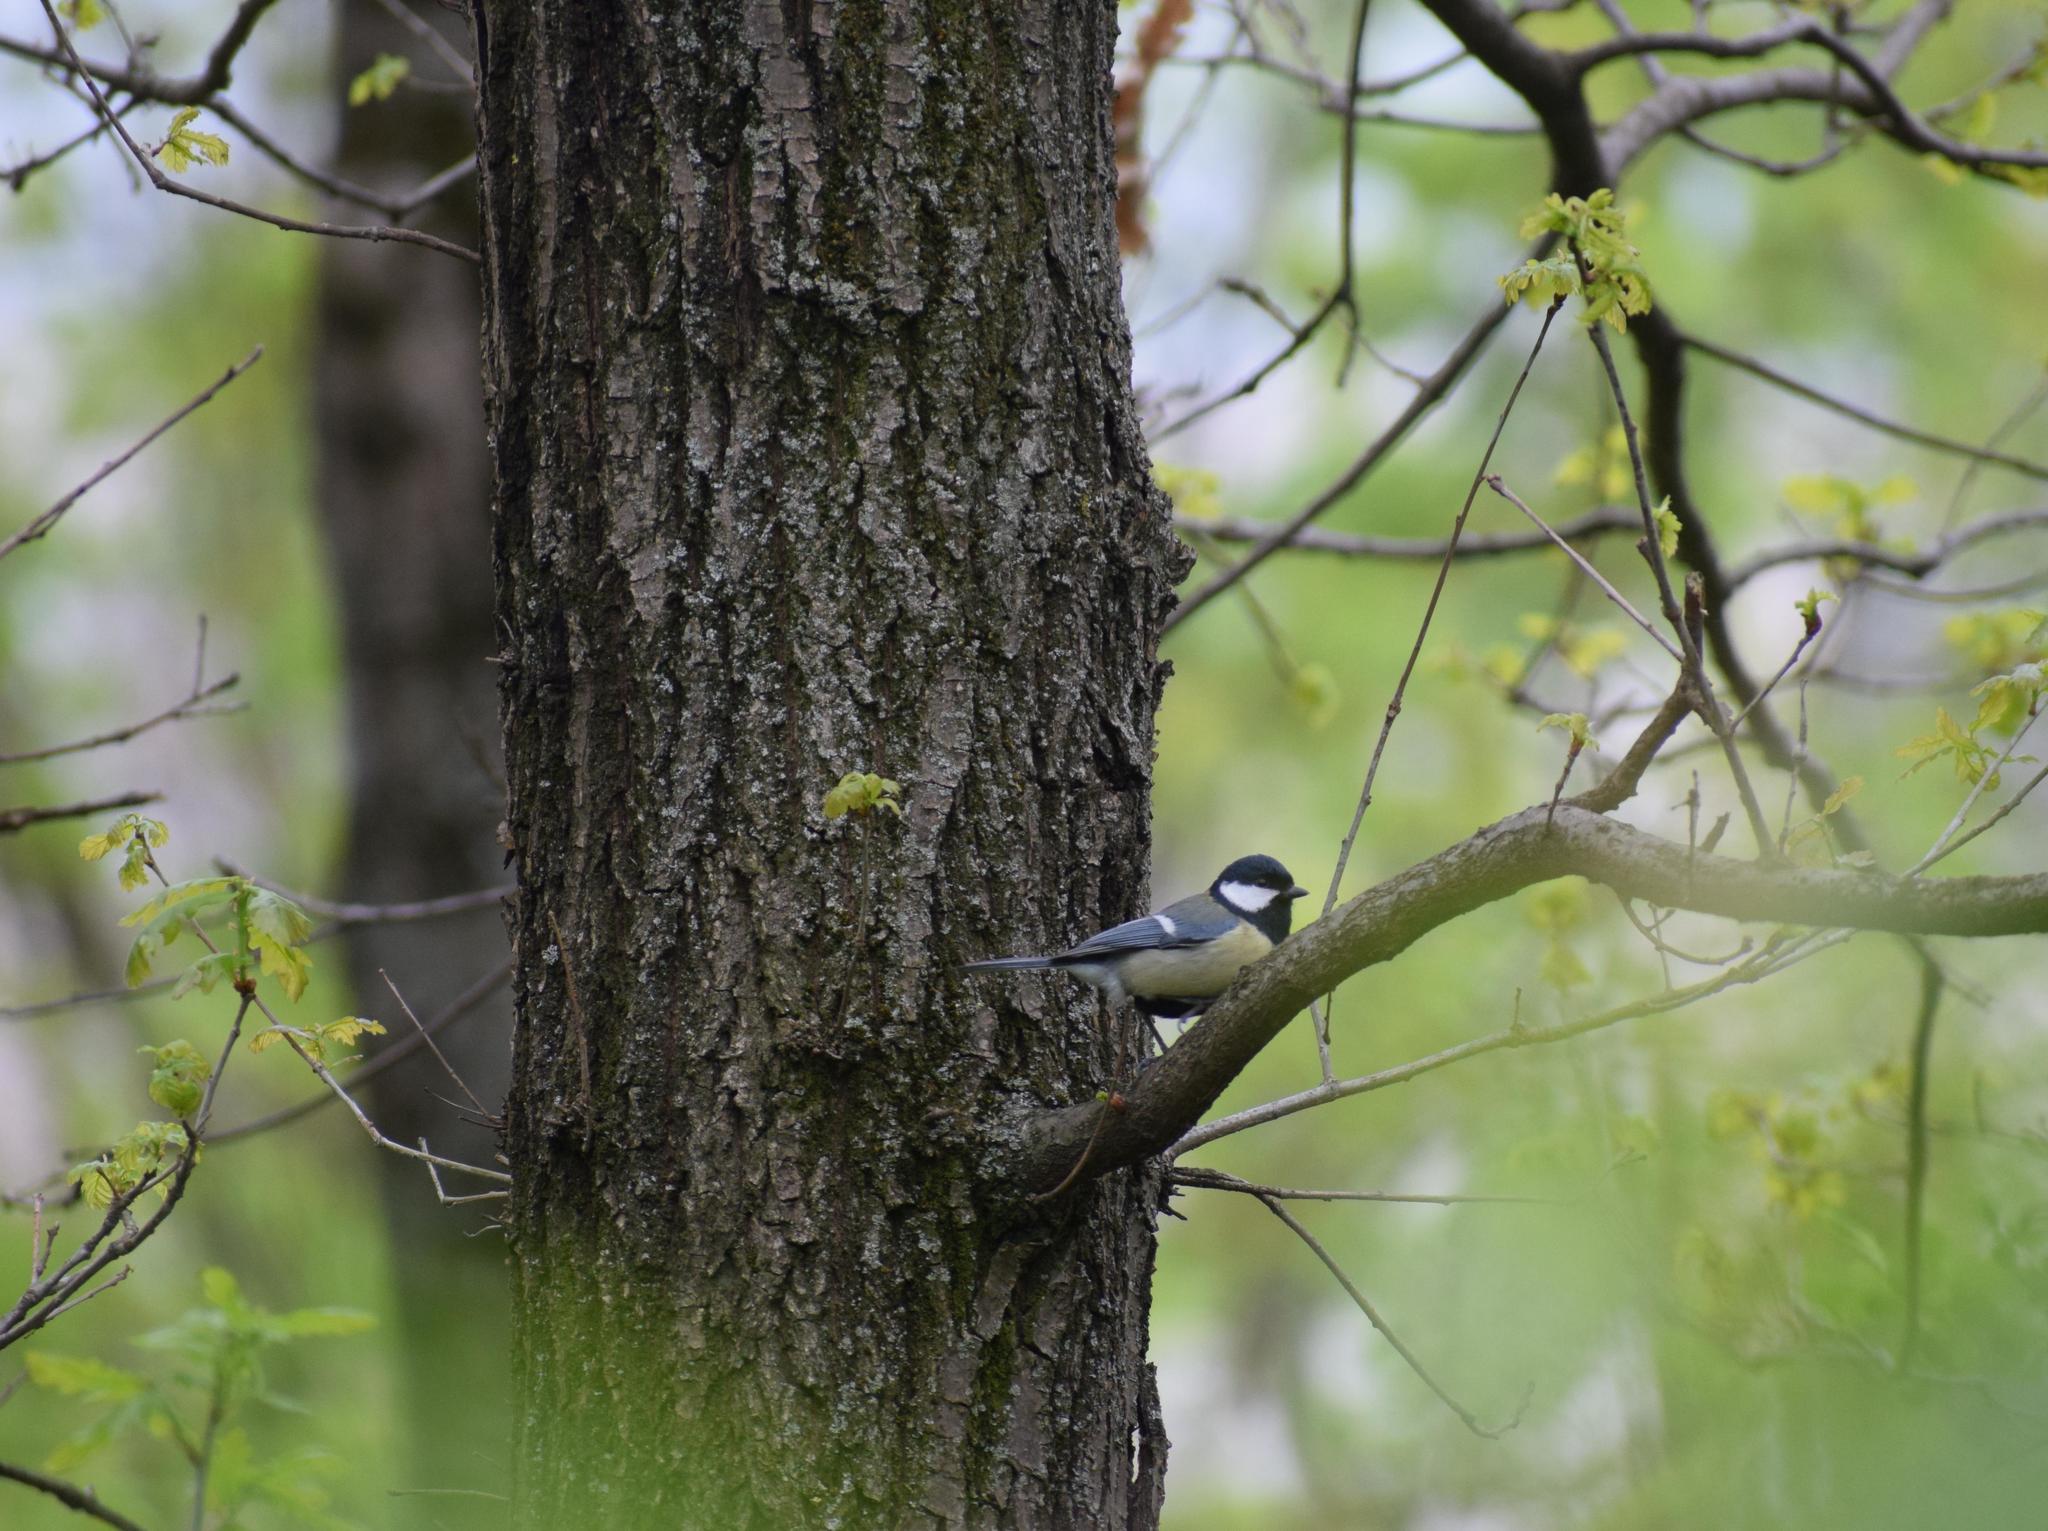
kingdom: Animalia
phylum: Chordata
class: Aves
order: Passeriformes
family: Paridae
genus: Parus
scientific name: Parus major
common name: Great tit
